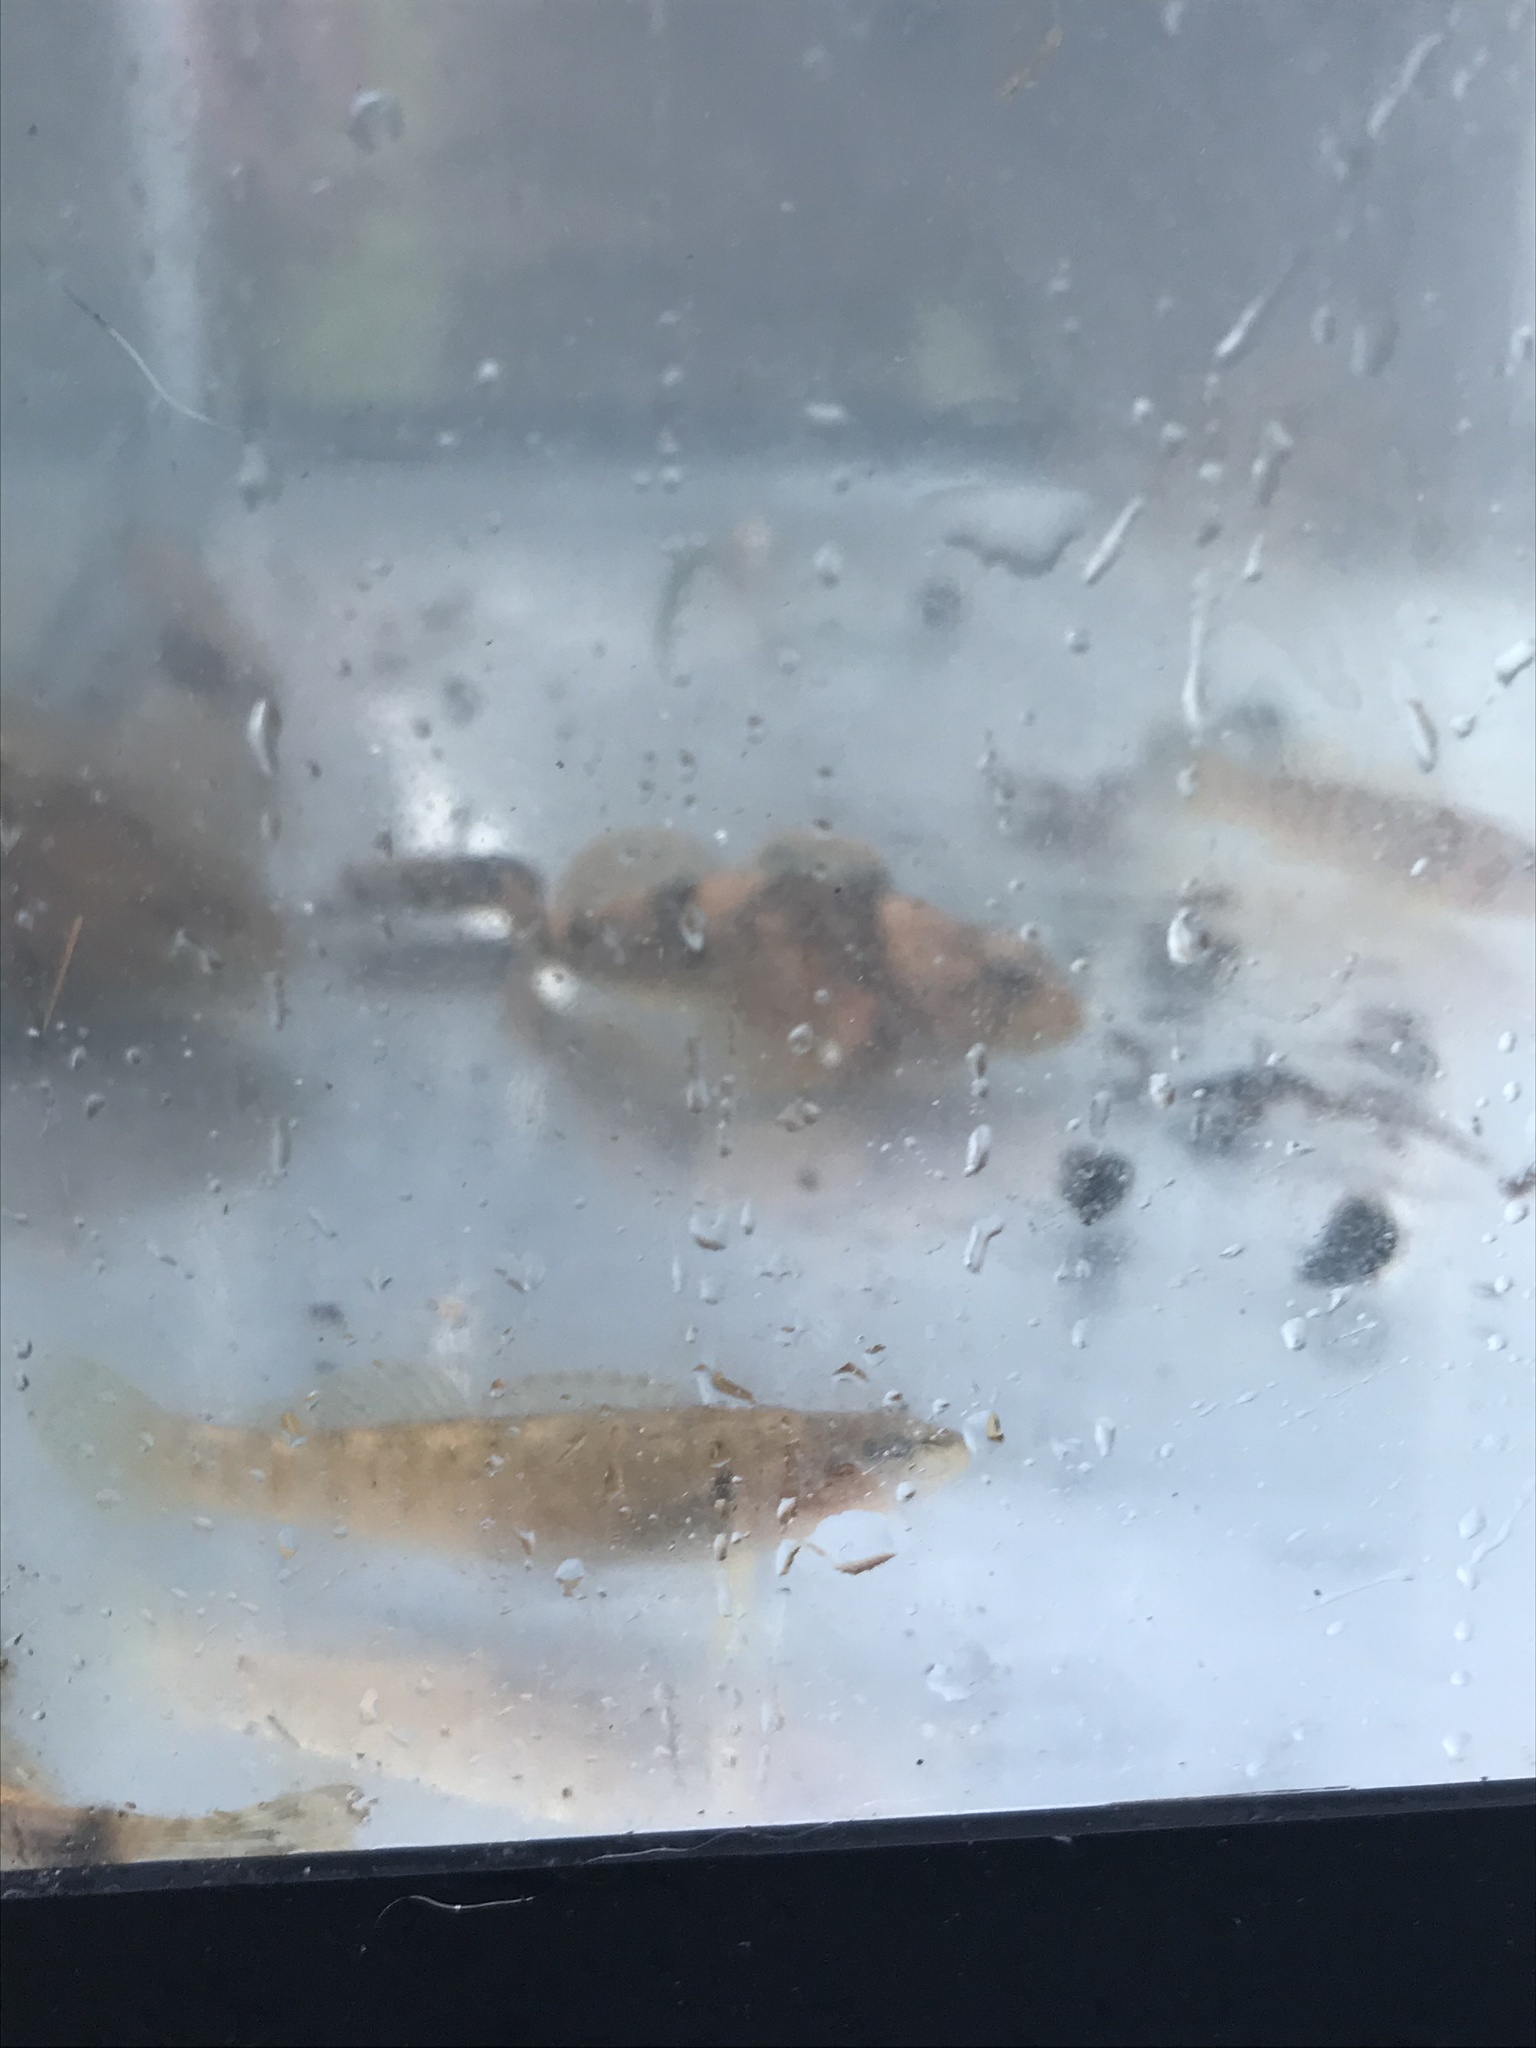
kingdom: Animalia
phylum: Chordata
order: Perciformes
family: Percidae
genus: Etheostoma
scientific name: Etheostoma flabellare
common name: Fantail darter
